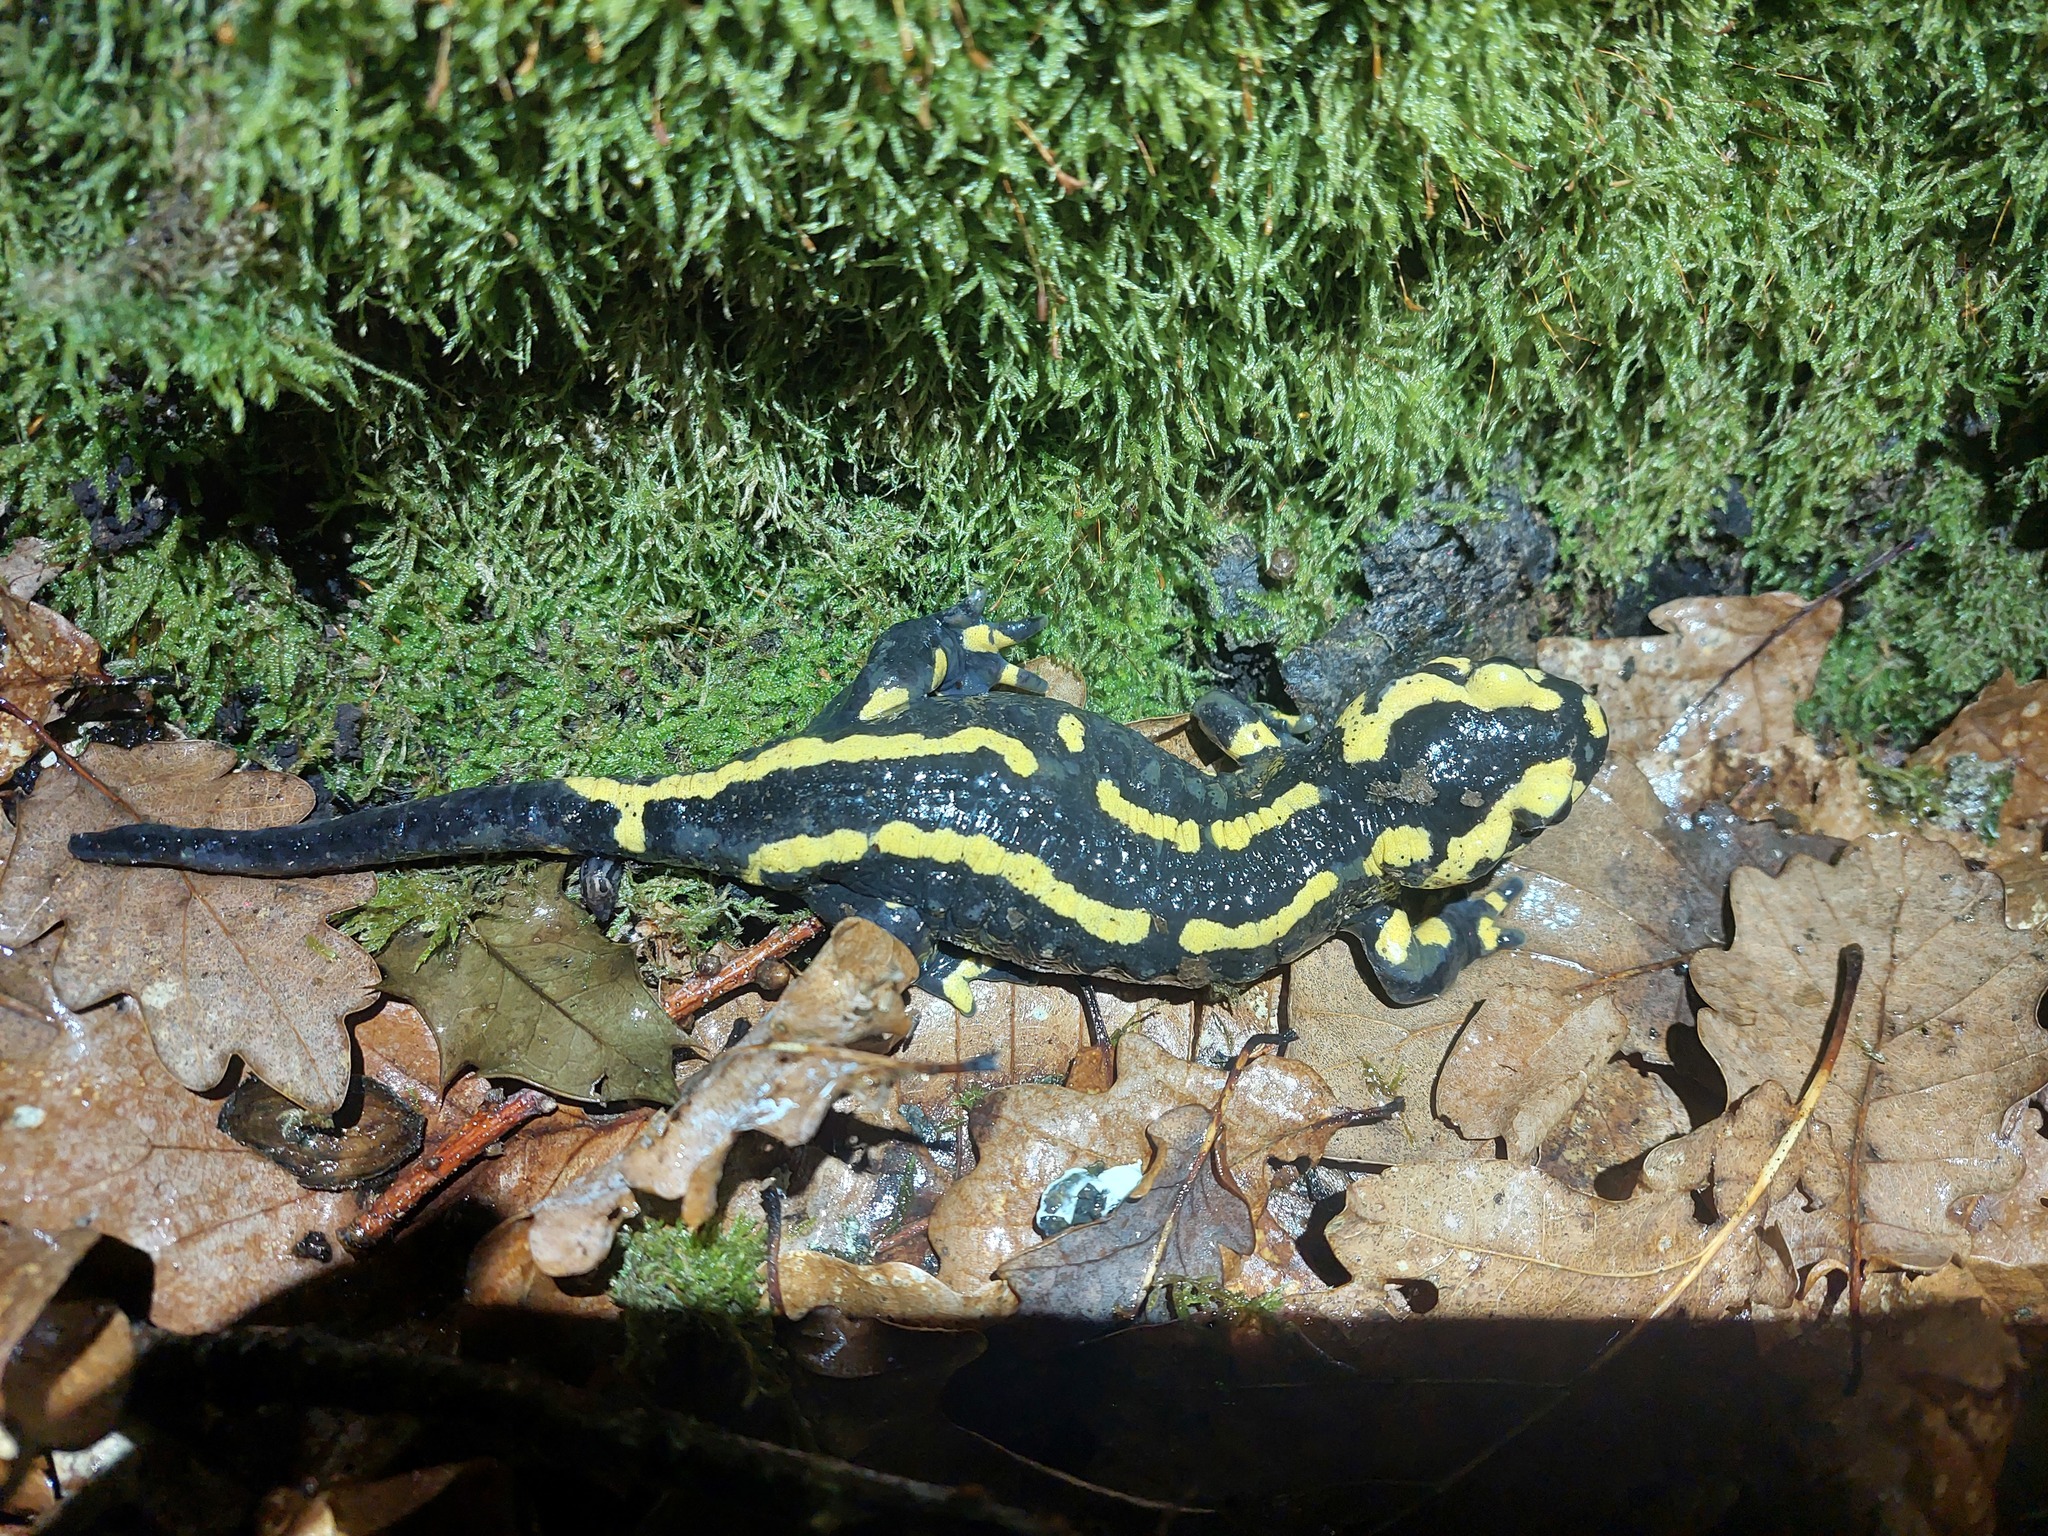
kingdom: Animalia
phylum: Chordata
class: Amphibia
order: Caudata
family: Salamandridae
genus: Salamandra
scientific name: Salamandra salamandra
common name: Fire salamander
